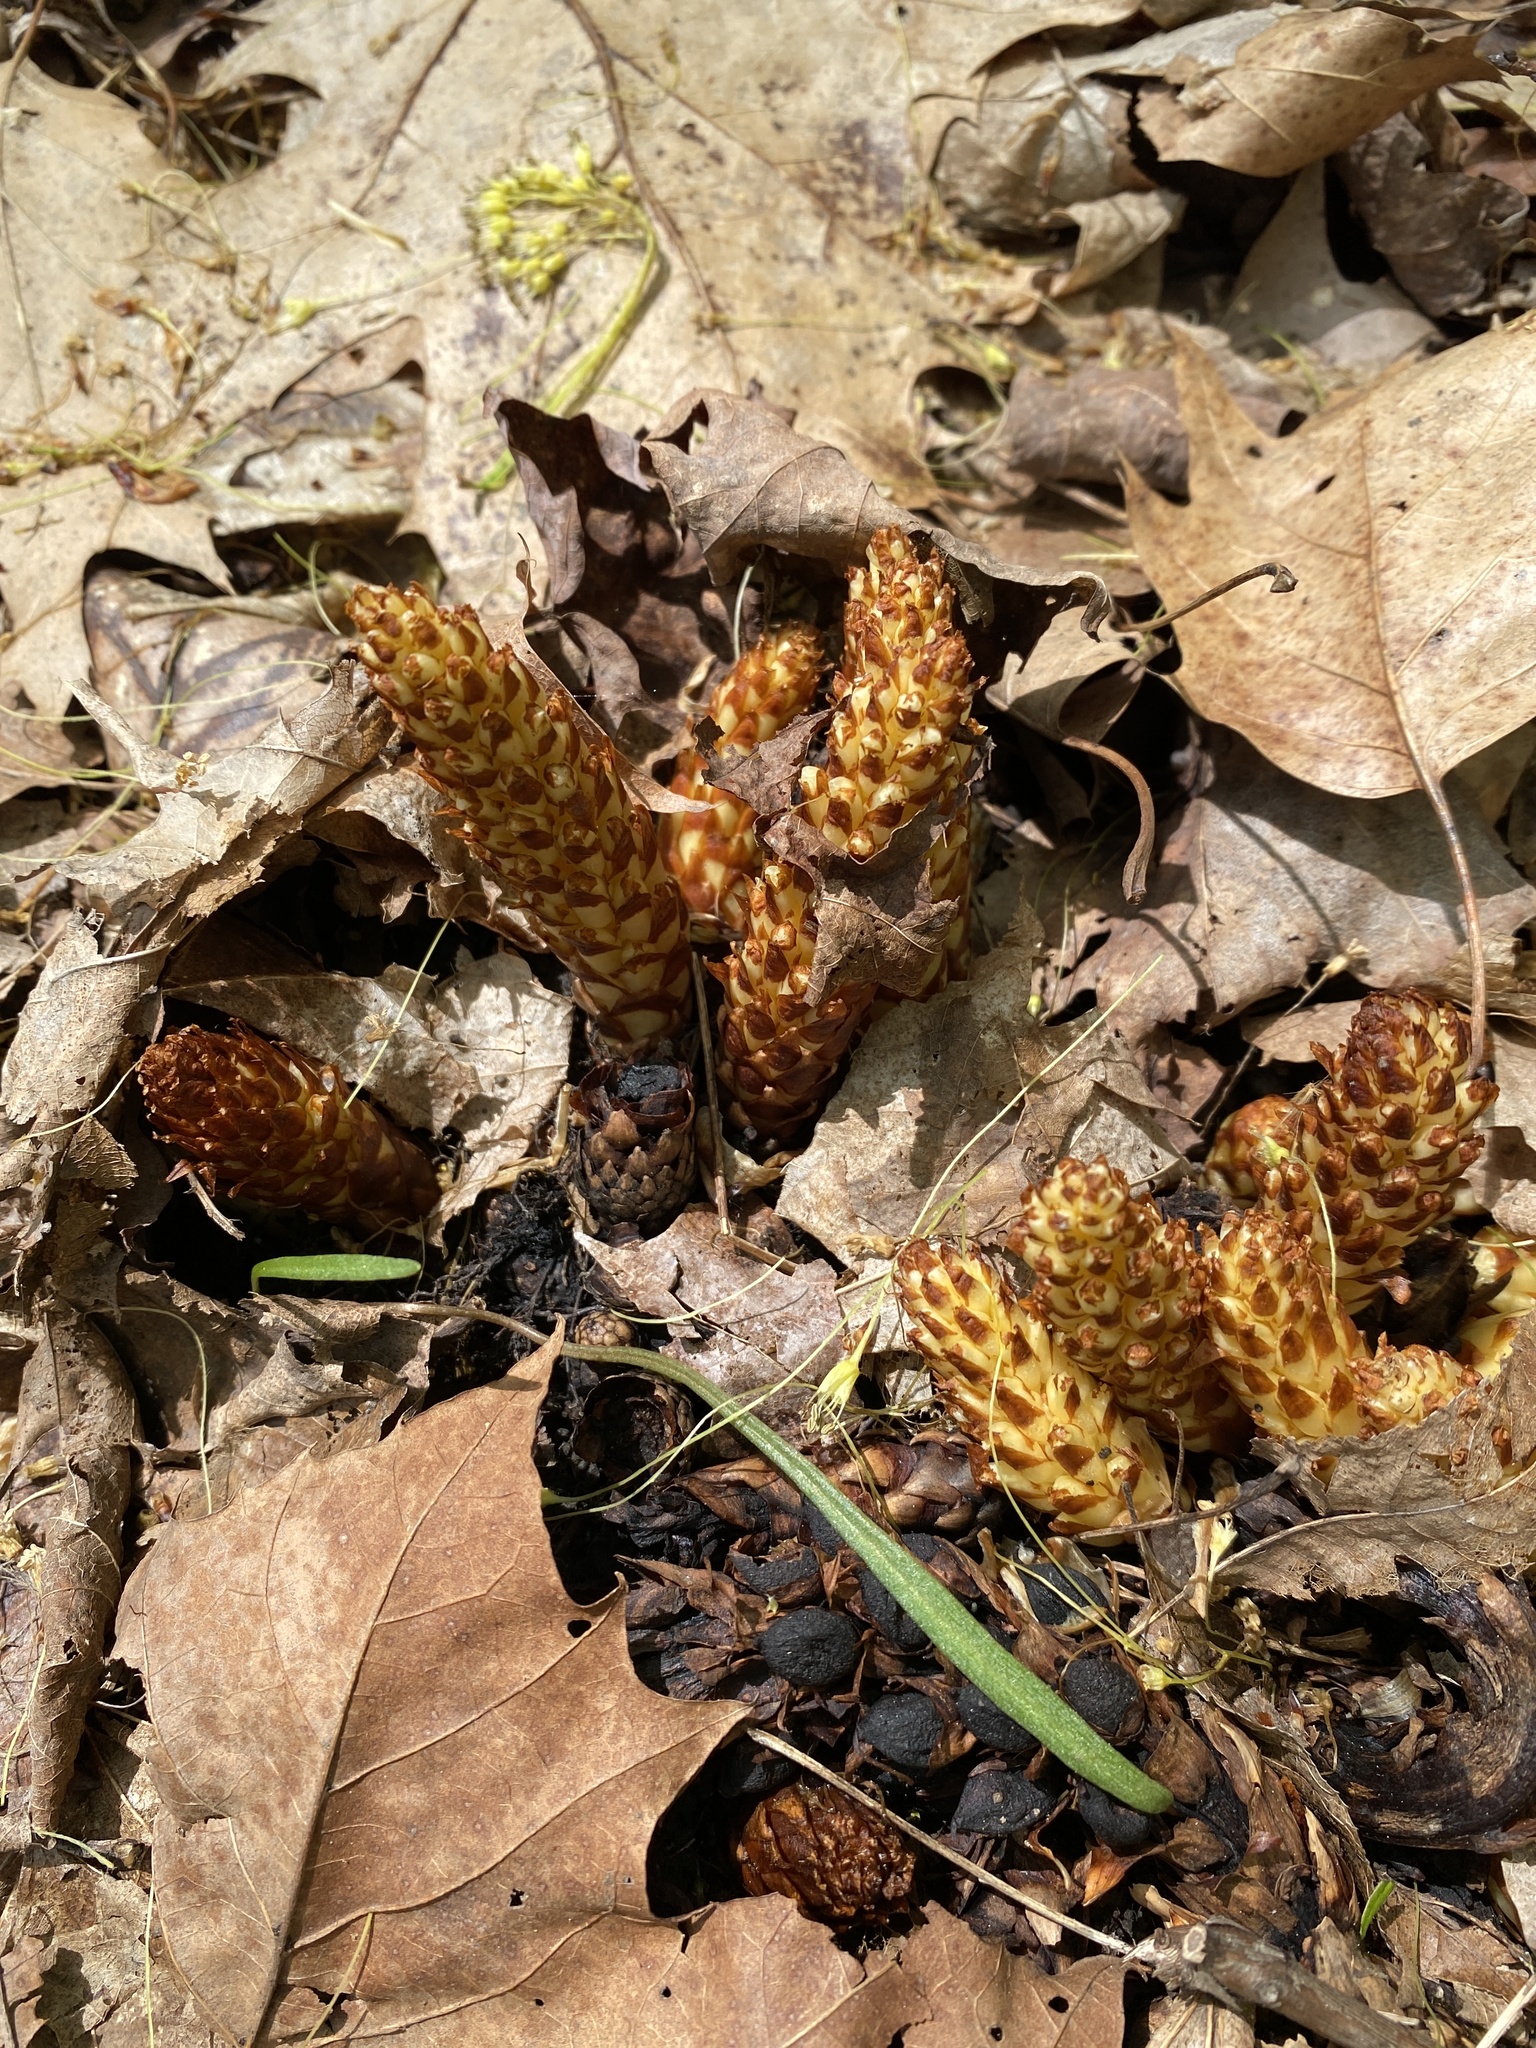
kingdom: Plantae
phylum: Tracheophyta
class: Magnoliopsida
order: Lamiales
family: Orobanchaceae
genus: Conopholis
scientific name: Conopholis americana
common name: American cancer-root
